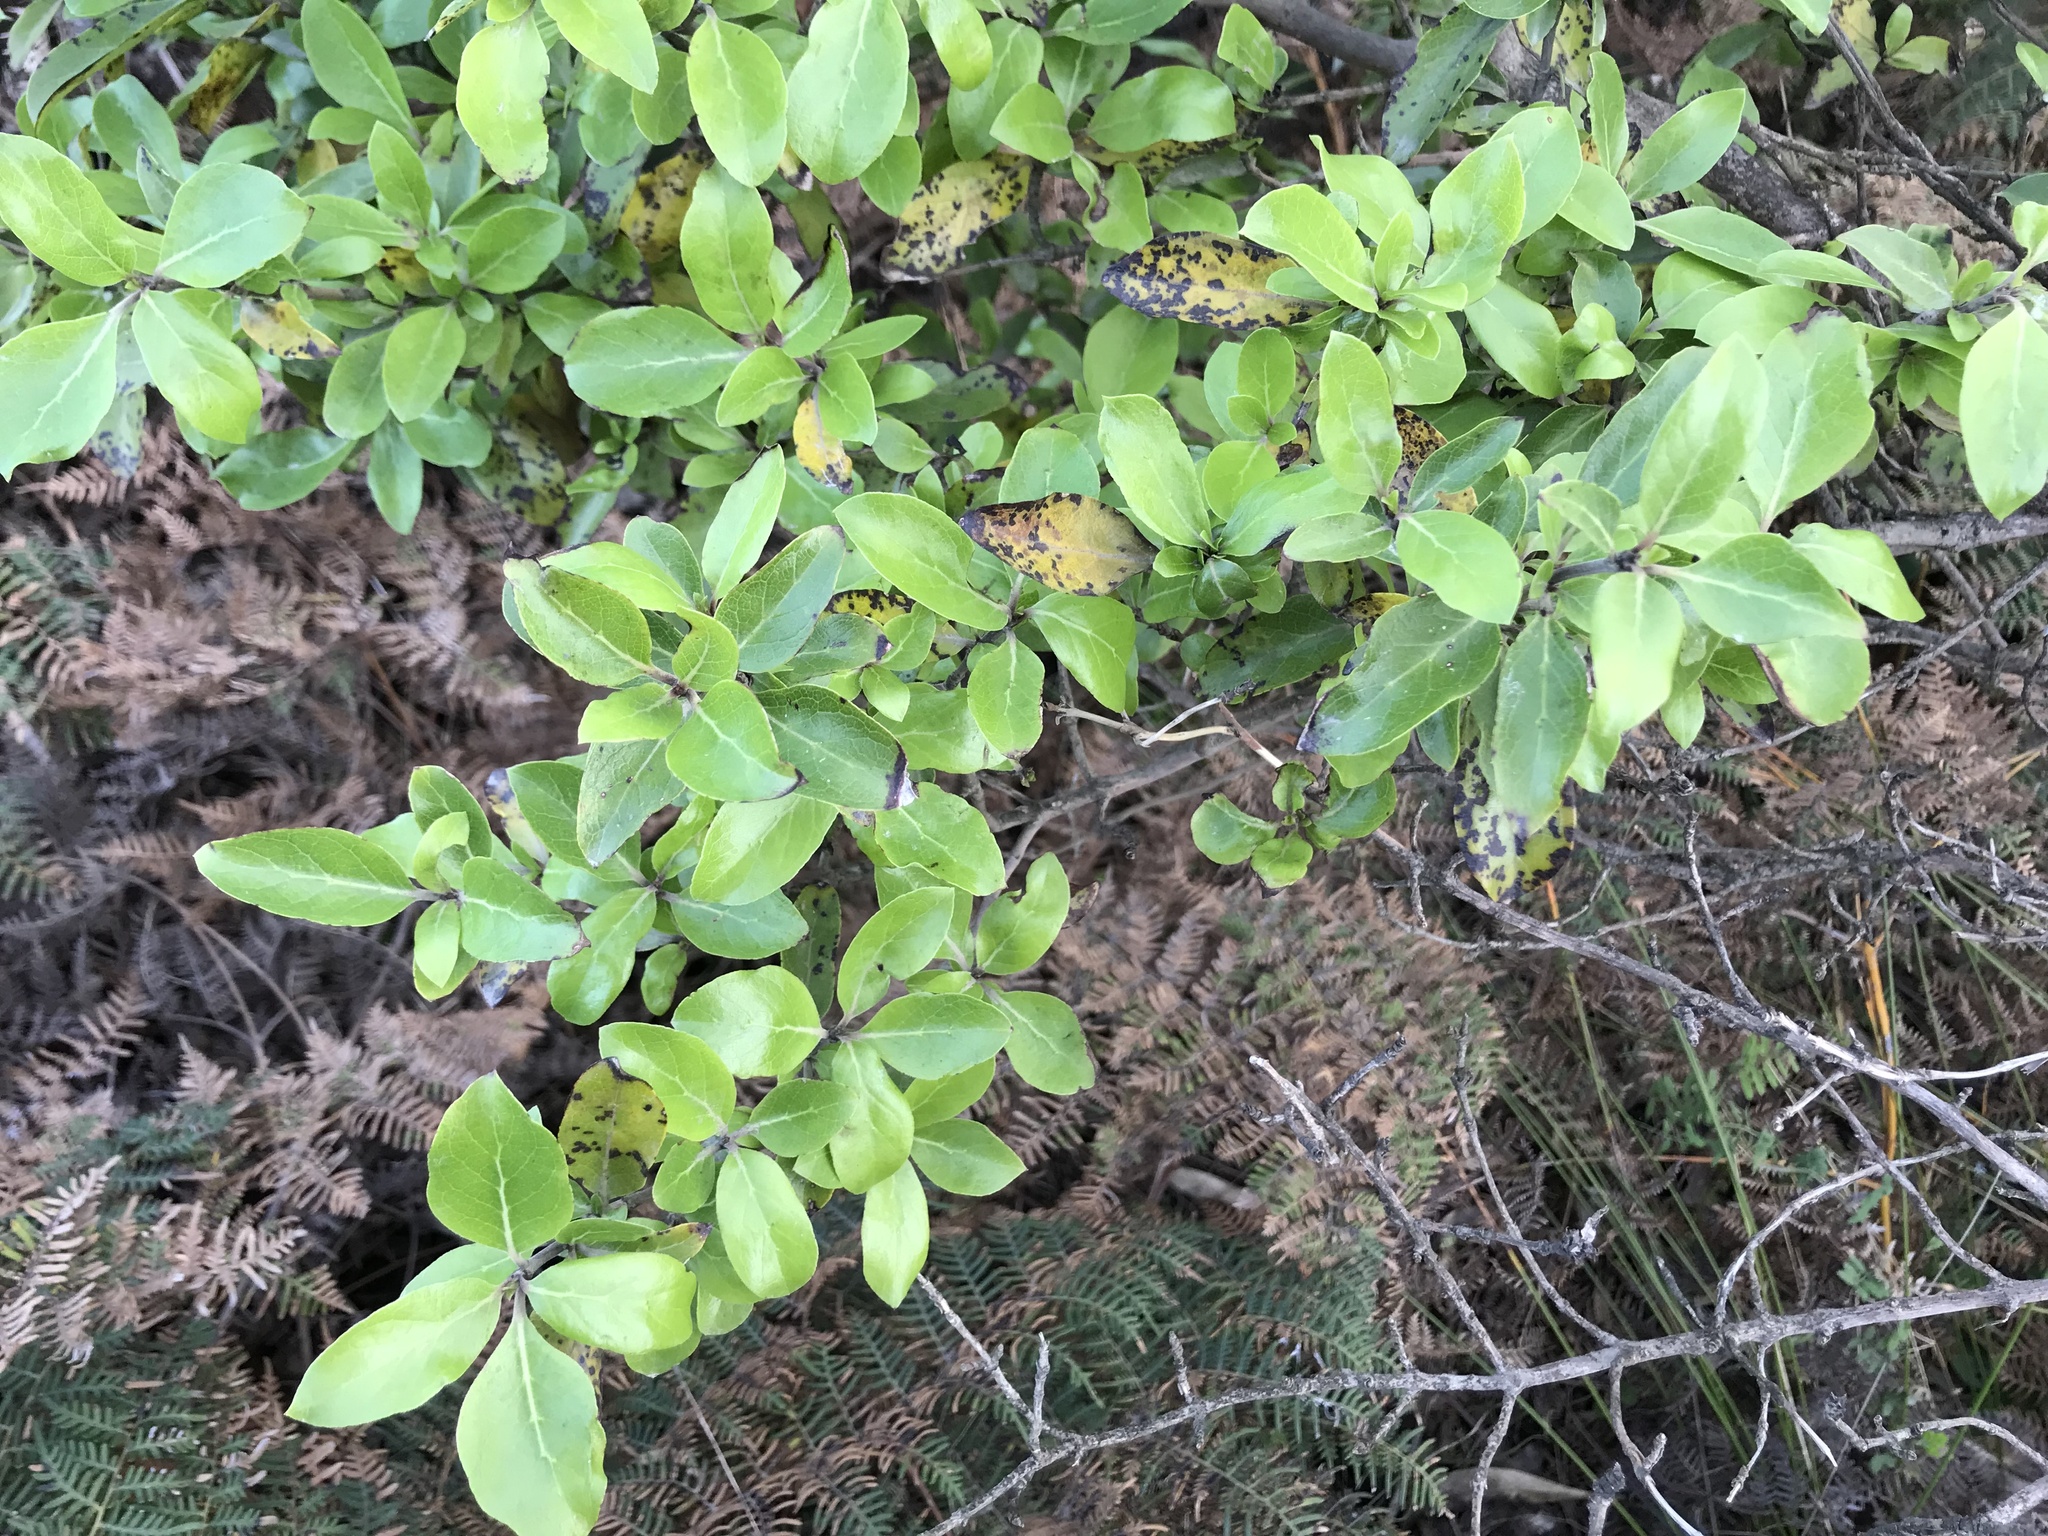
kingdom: Plantae
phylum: Tracheophyta
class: Magnoliopsida
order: Gentianales
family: Rubiaceae
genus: Coprosma
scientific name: Coprosma chathamica
